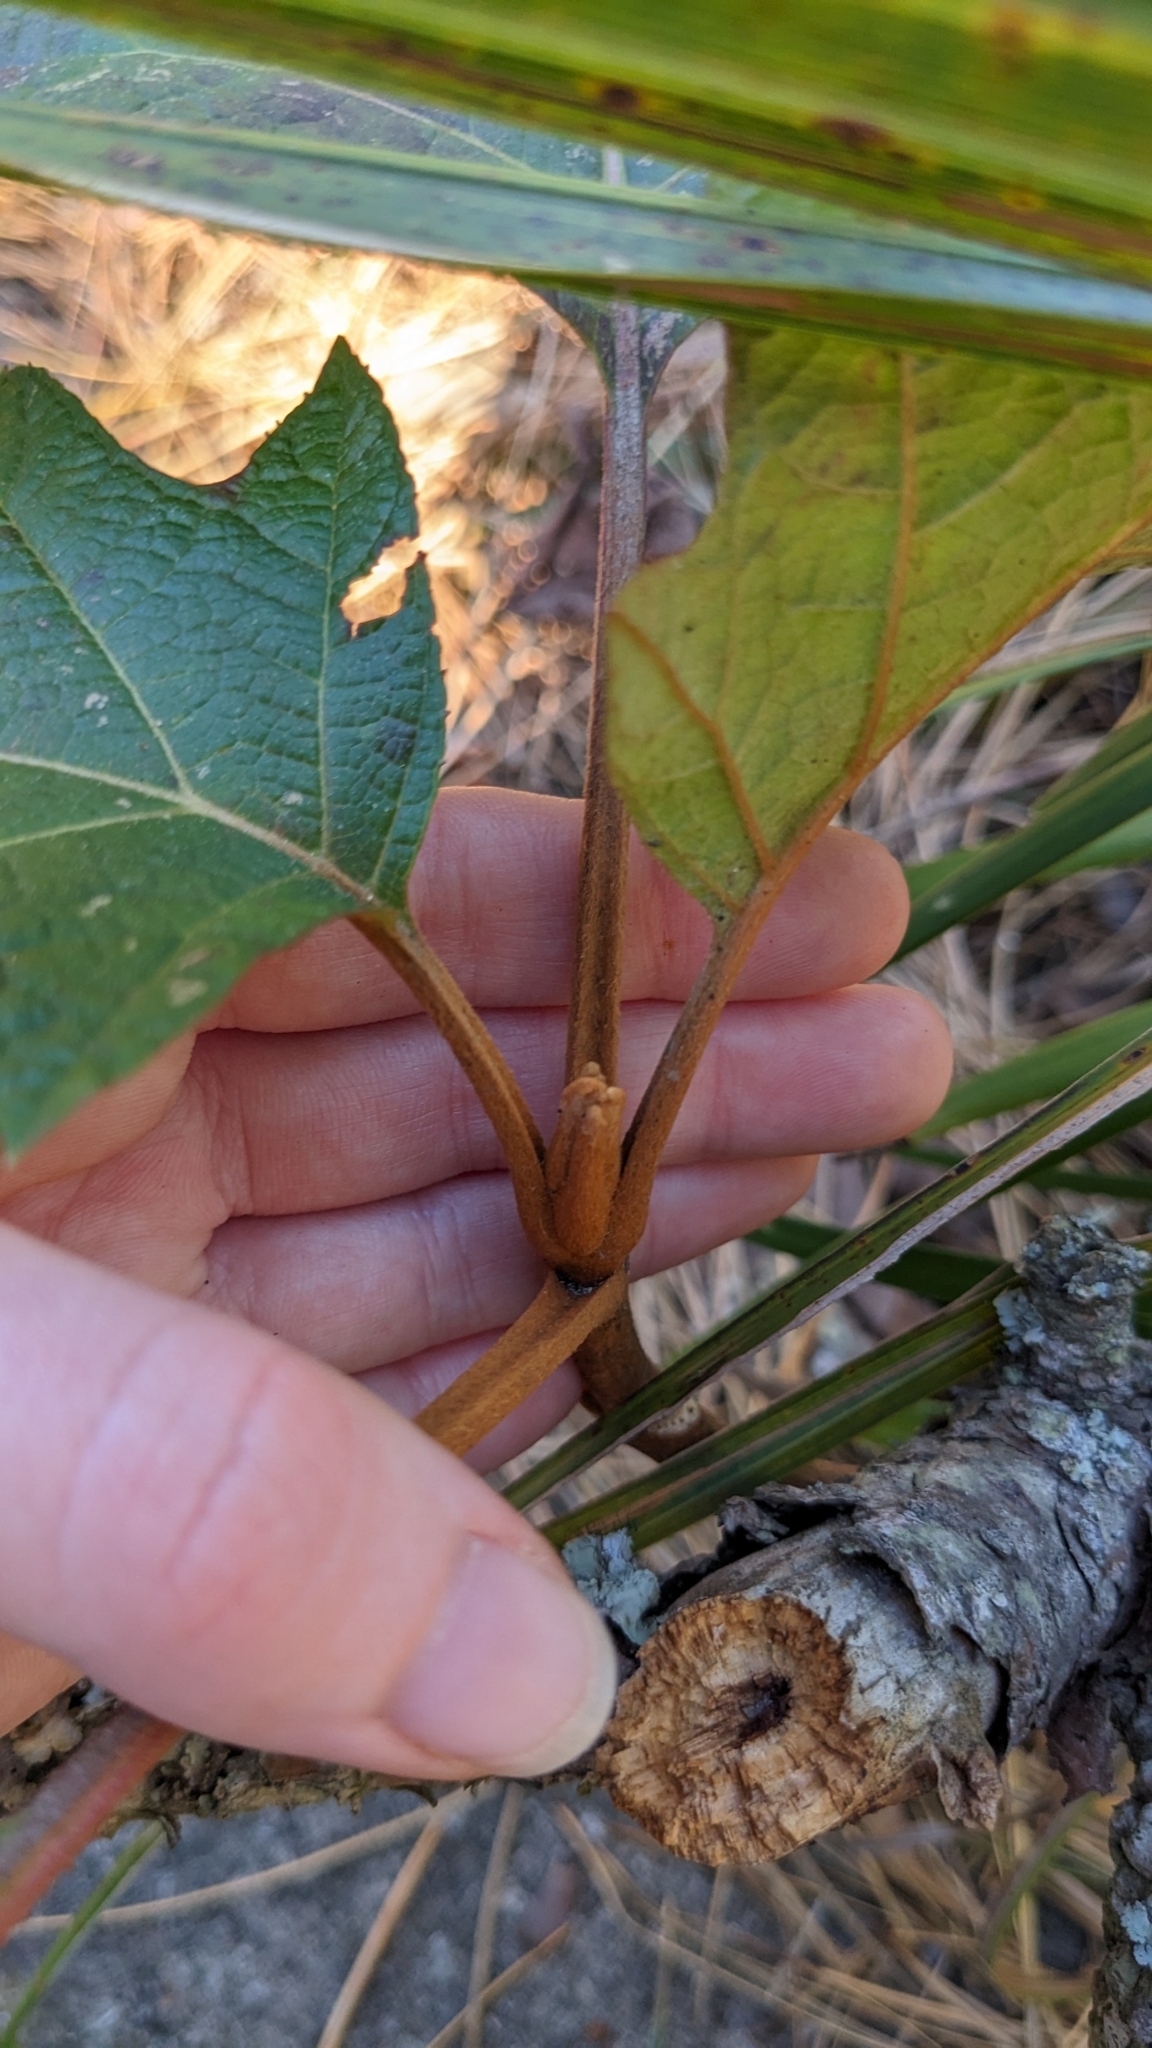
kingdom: Plantae
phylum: Tracheophyta
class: Magnoliopsida
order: Cornales
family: Hydrangeaceae
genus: Hydrangea
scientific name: Hydrangea quercifolia
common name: Oak-leaf hydrangea
